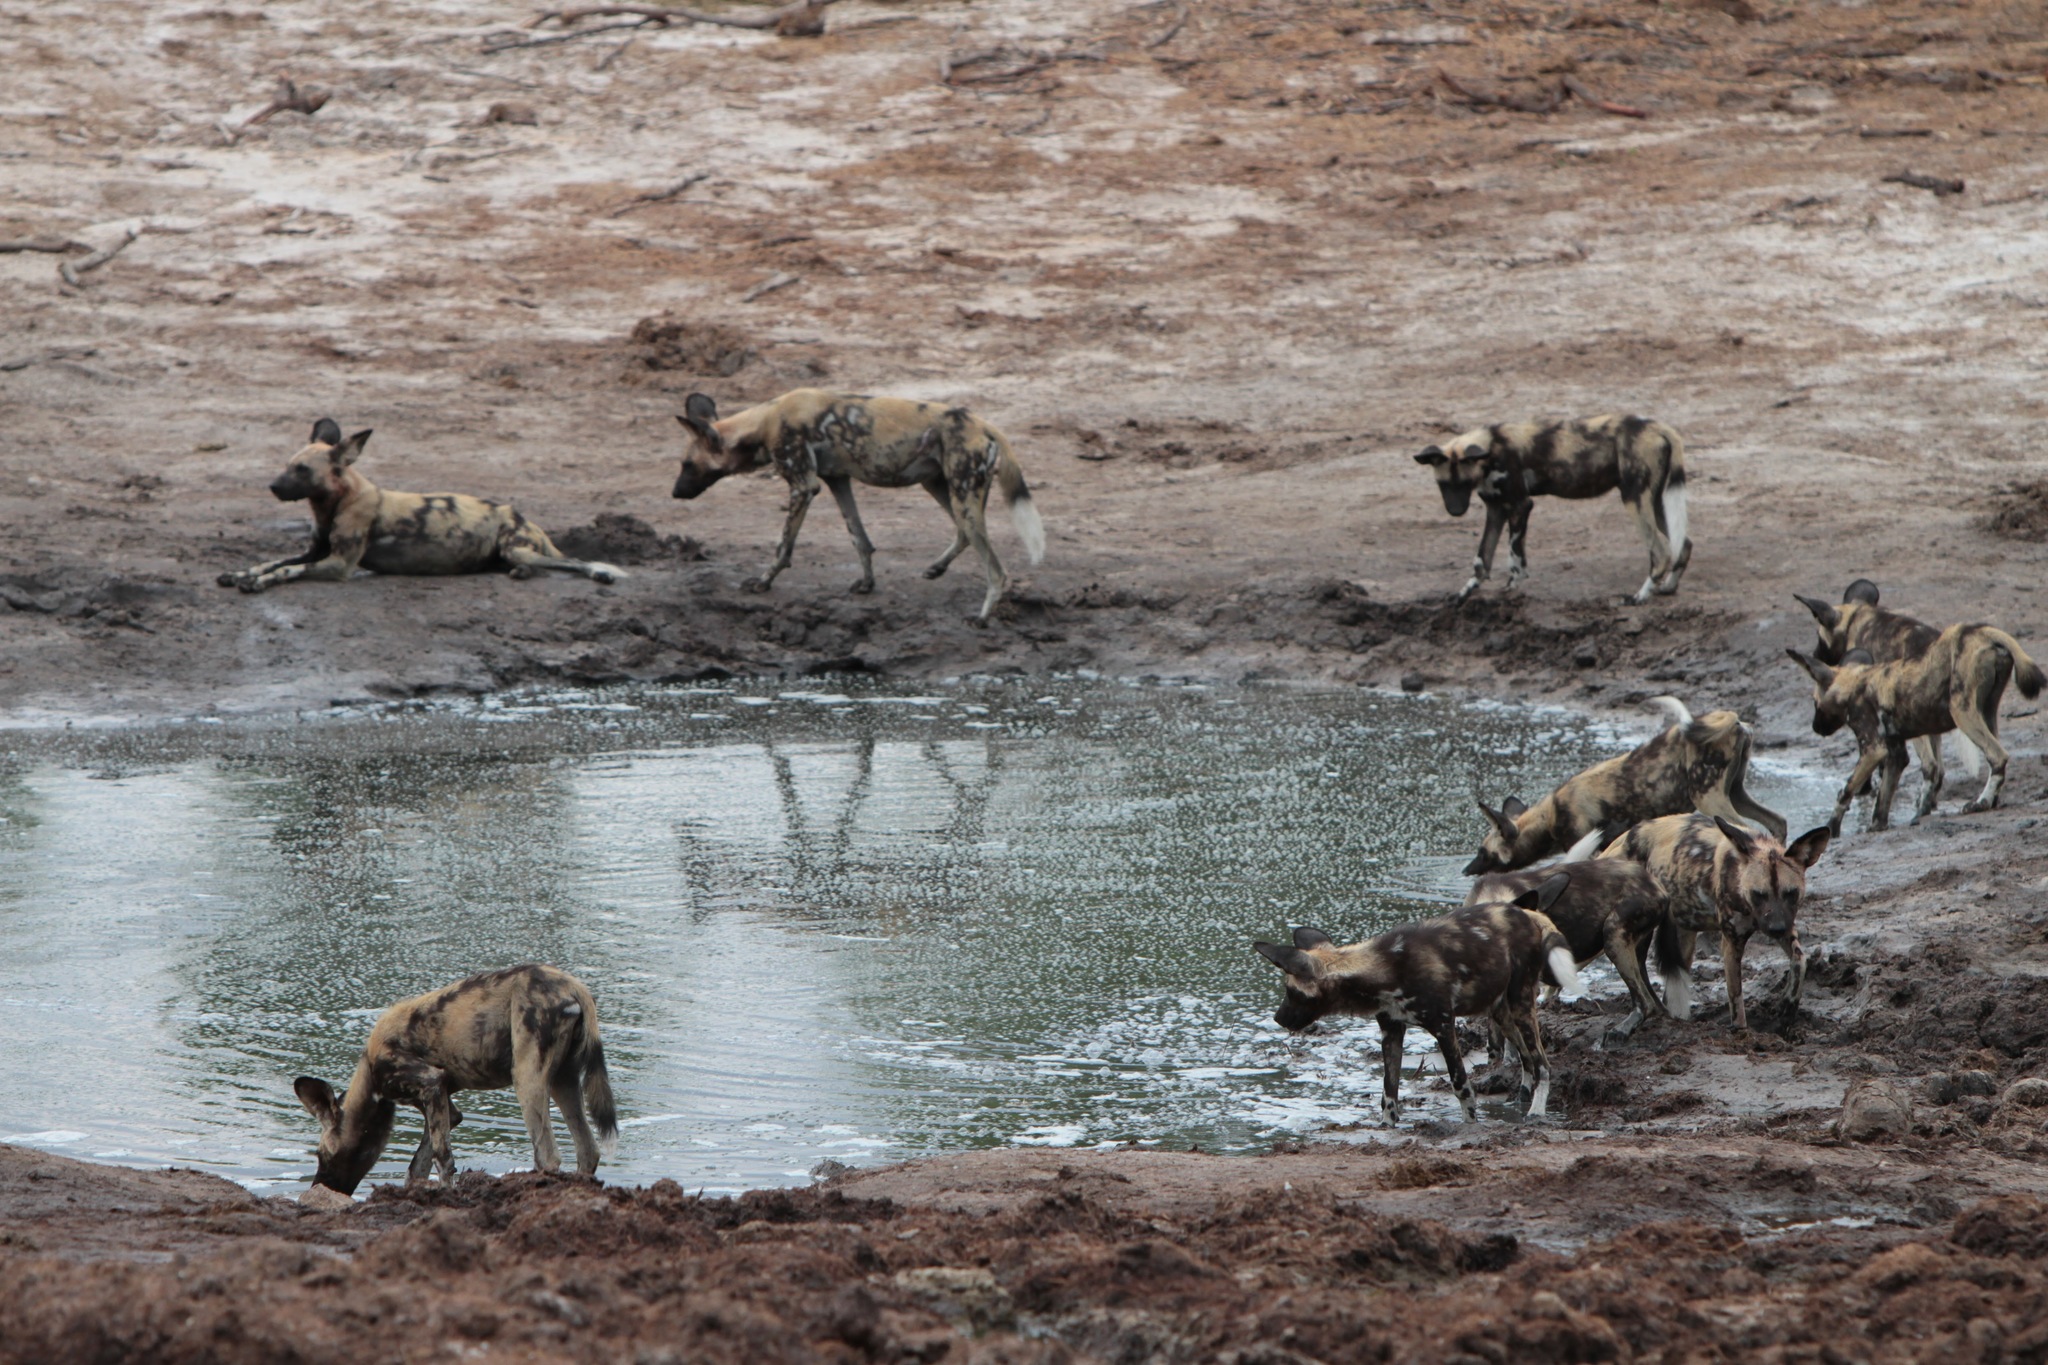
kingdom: Animalia
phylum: Chordata
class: Mammalia
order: Carnivora
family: Canidae
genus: Lycaon
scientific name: Lycaon pictus
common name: African wild dog
